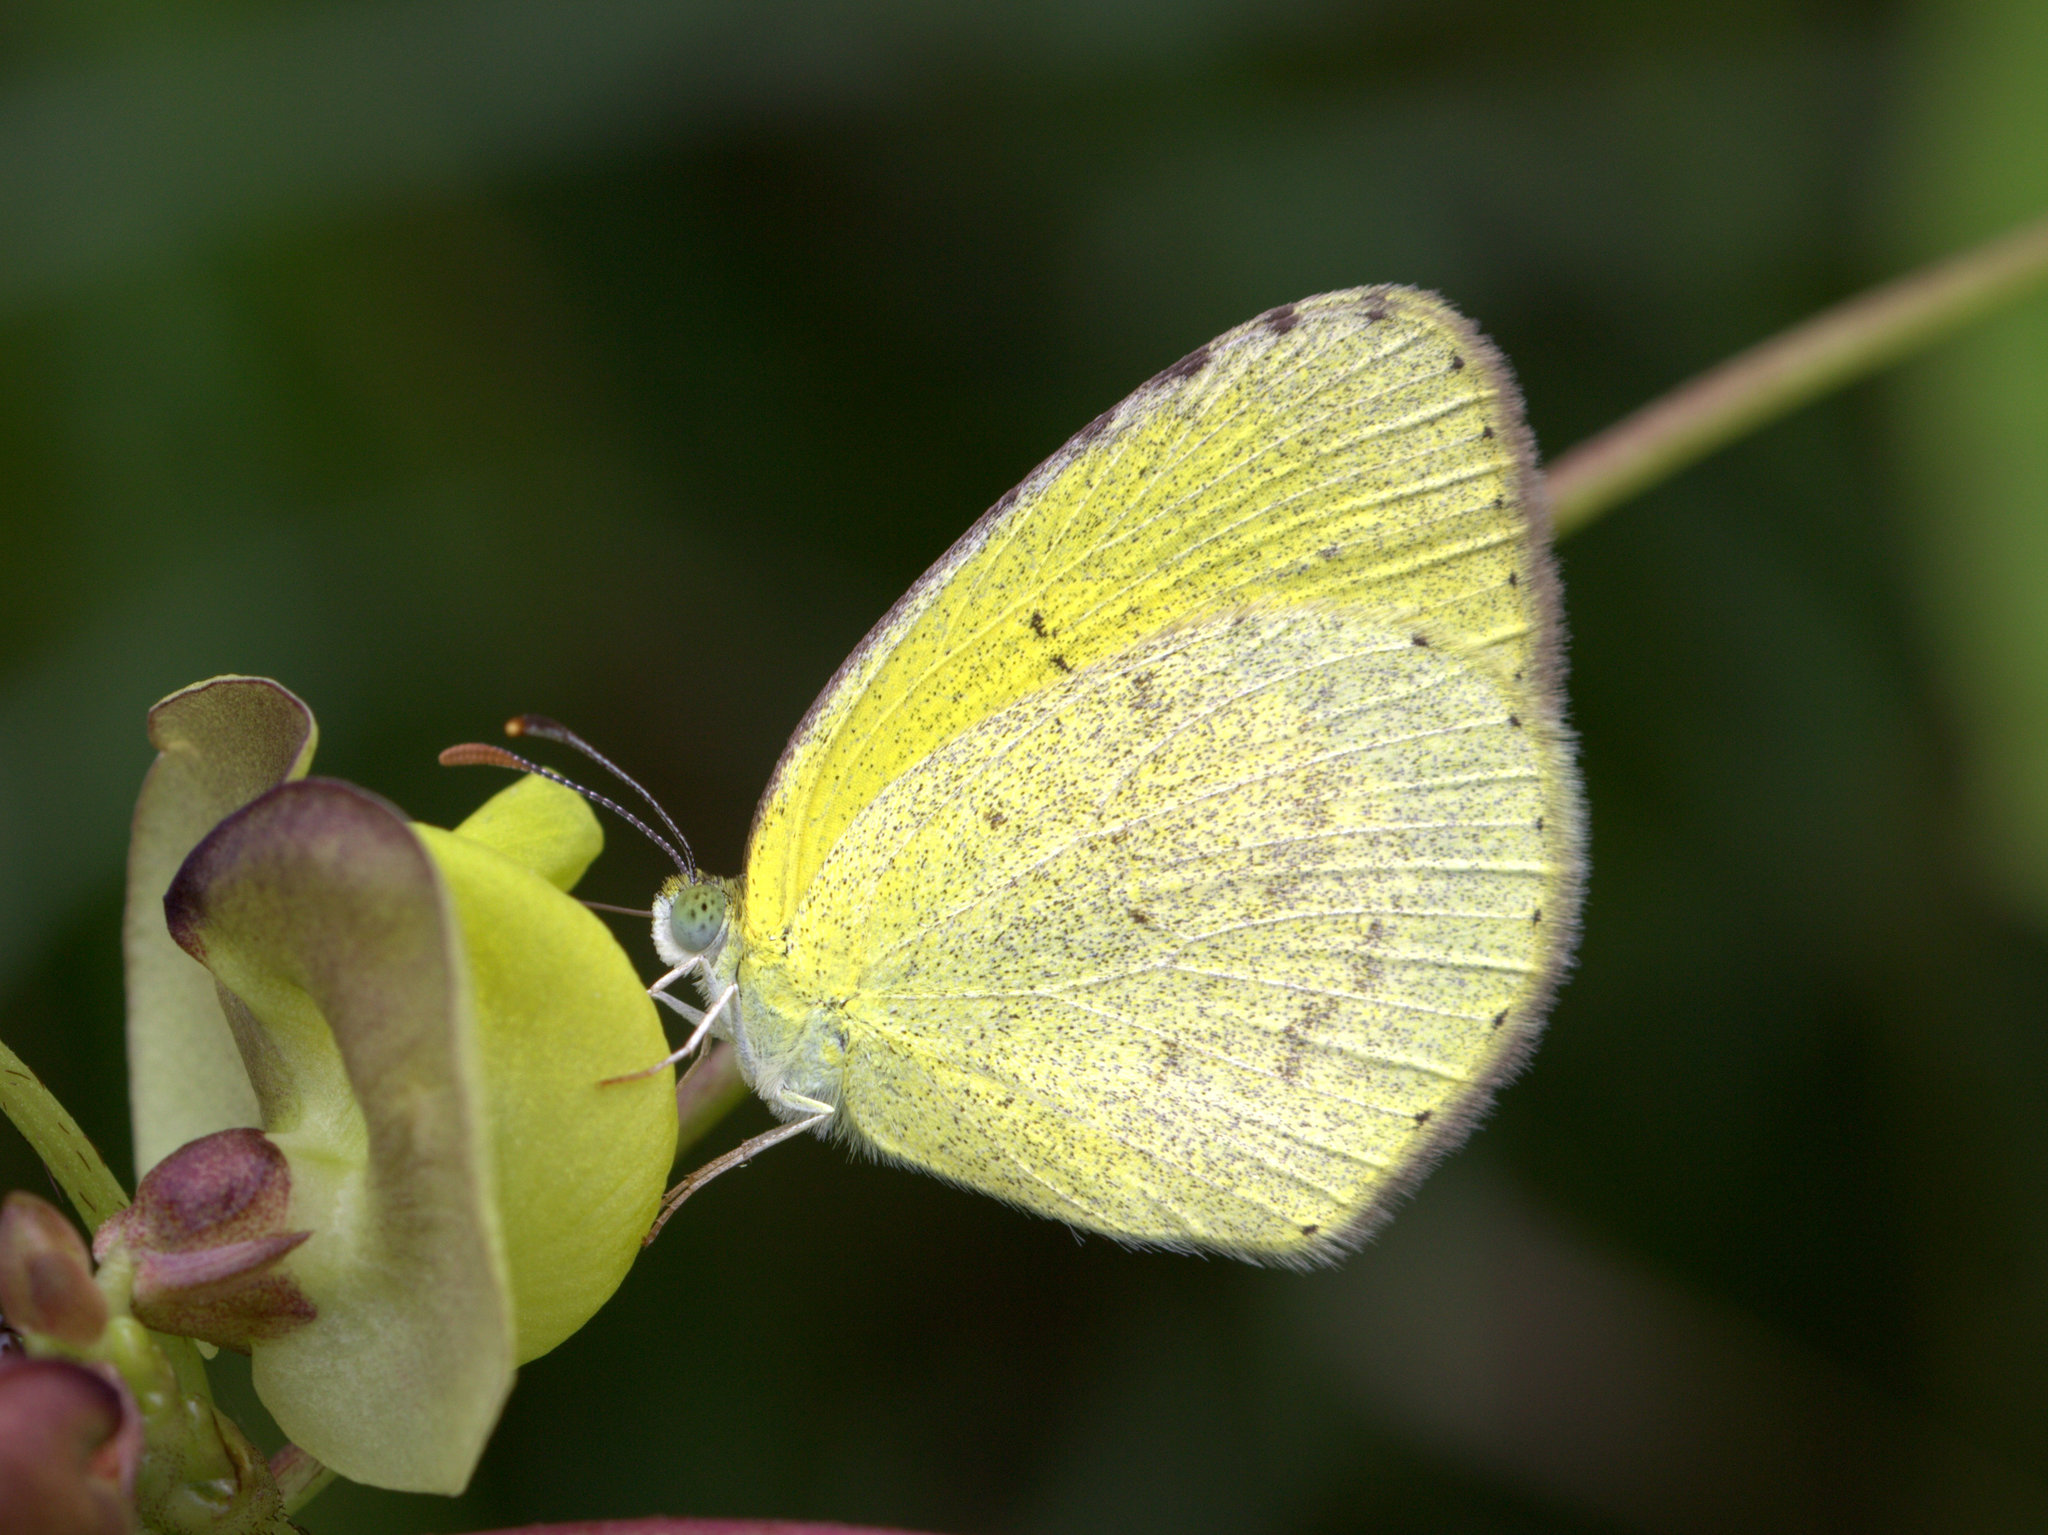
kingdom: Animalia
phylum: Arthropoda
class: Insecta
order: Lepidoptera
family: Pieridae
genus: Eurema
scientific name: Eurema brigitta
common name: Small grass yellow
